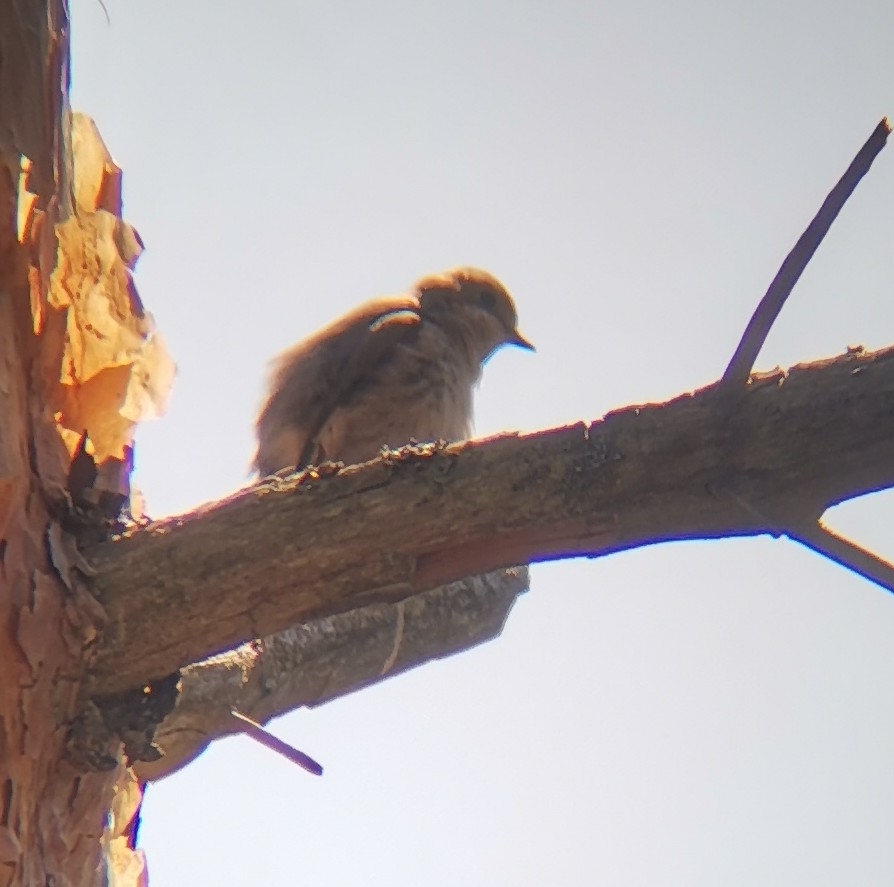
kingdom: Animalia
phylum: Chordata
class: Aves
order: Passeriformes
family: Muscicapidae
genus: Ficedula
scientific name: Ficedula hypoleuca
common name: European pied flycatcher
